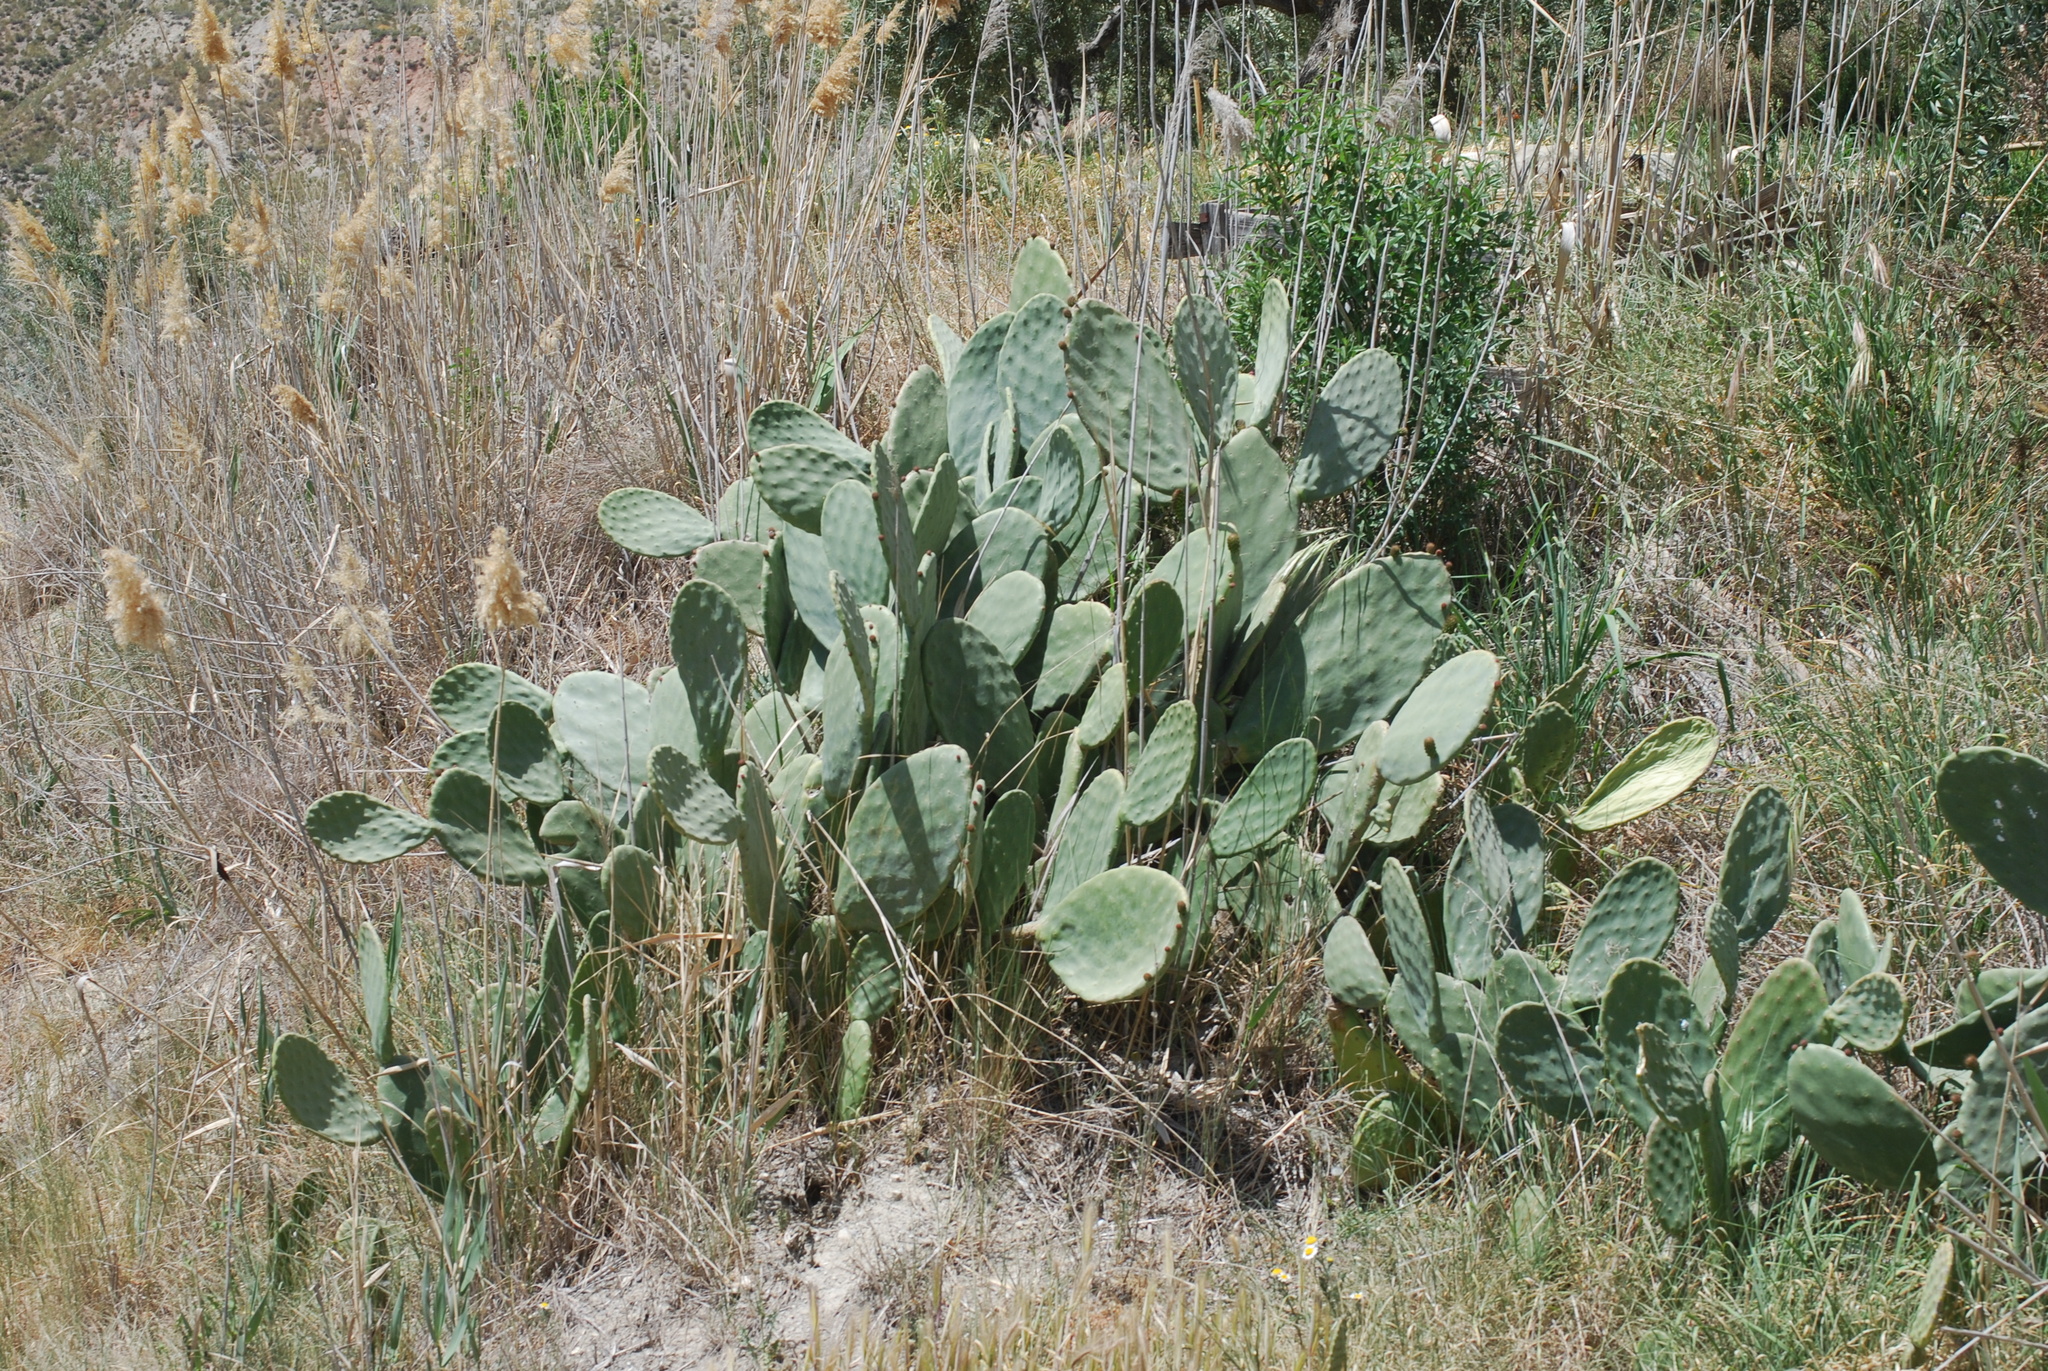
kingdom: Plantae
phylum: Tracheophyta
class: Magnoliopsida
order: Caryophyllales
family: Cactaceae
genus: Opuntia
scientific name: Opuntia ficus-indica
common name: Barbary fig
